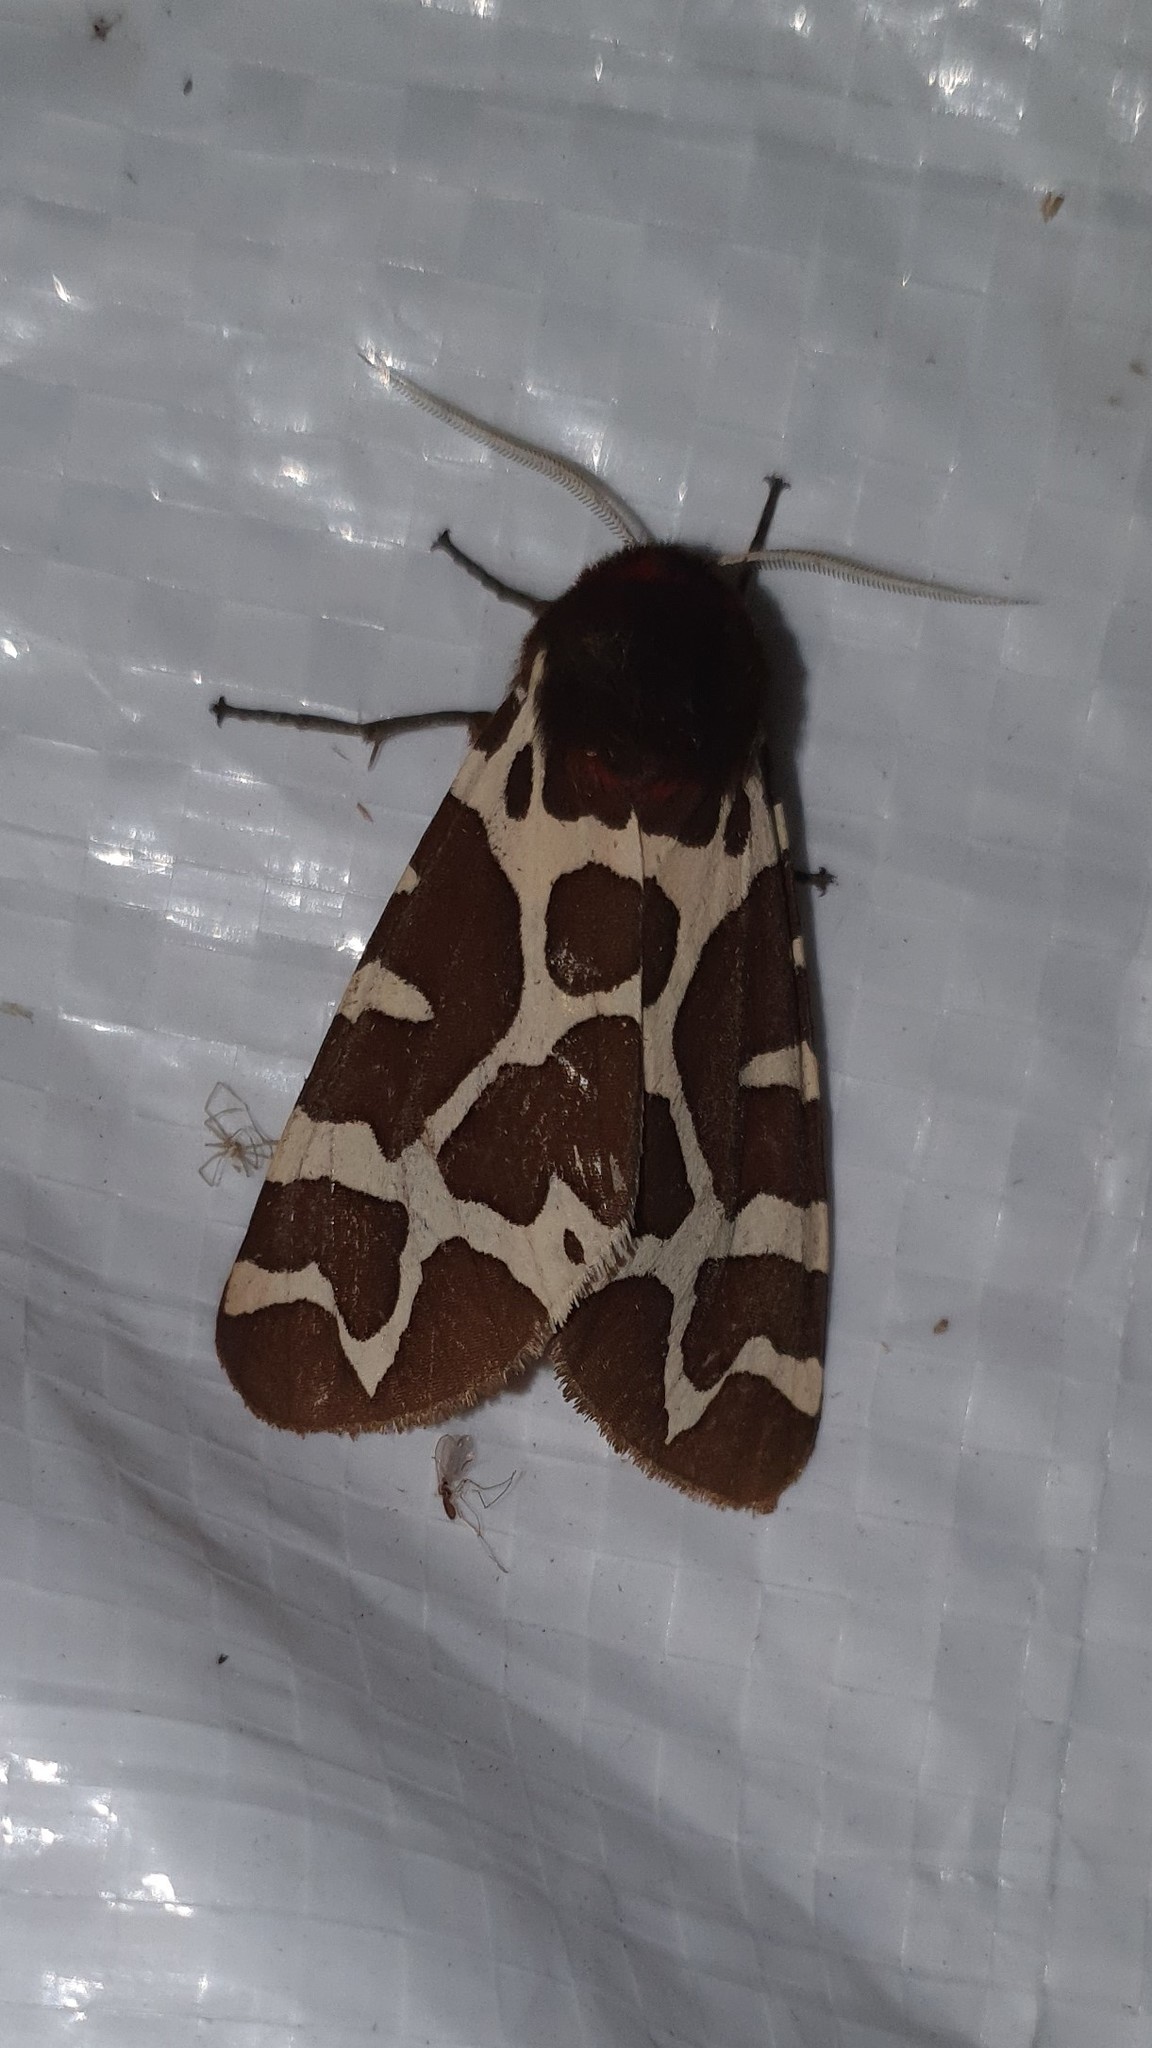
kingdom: Animalia
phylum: Arthropoda
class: Insecta
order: Lepidoptera
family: Erebidae
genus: Arctia
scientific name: Arctia caja
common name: Garden tiger
